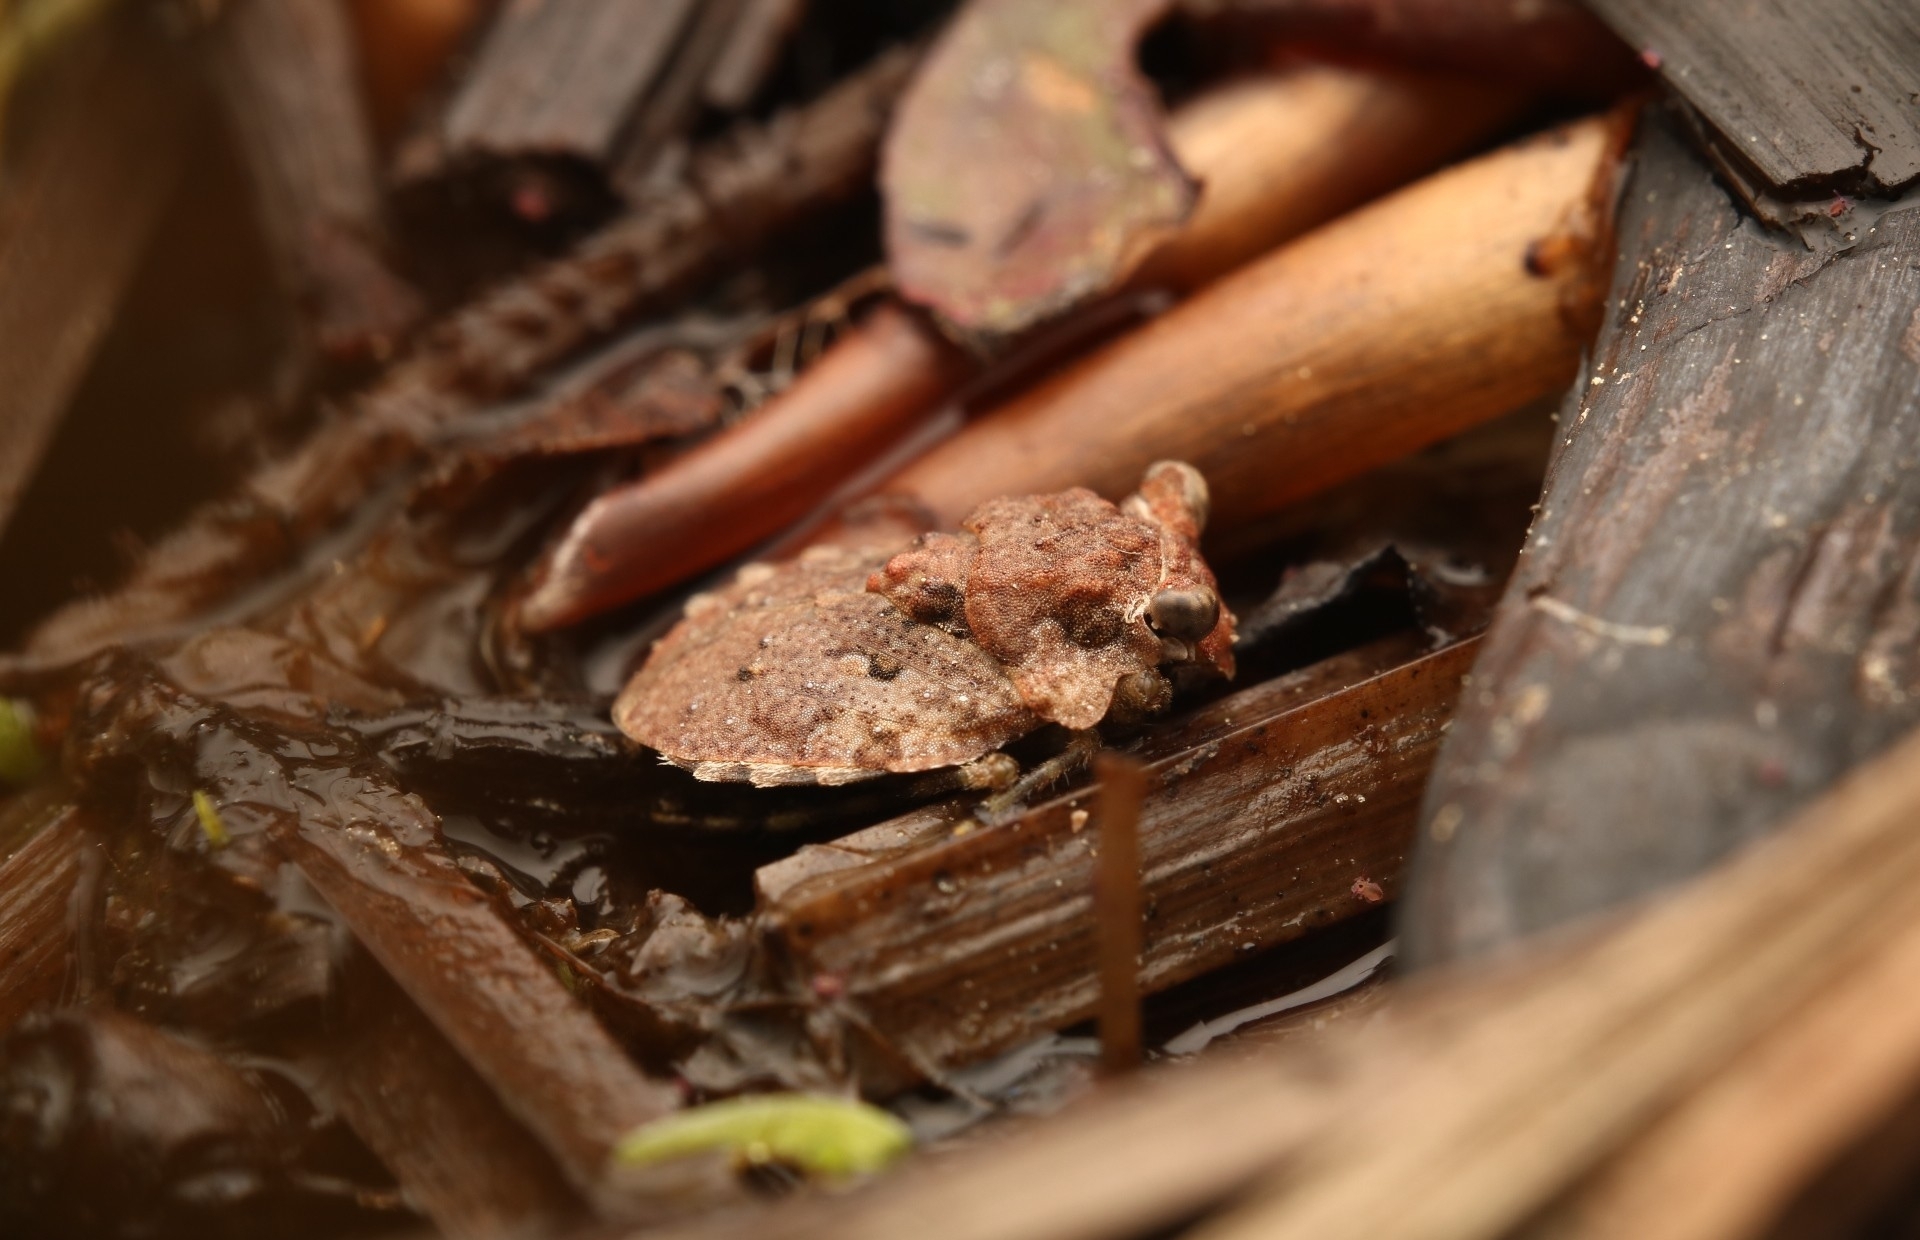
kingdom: Animalia
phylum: Arthropoda
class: Insecta
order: Hemiptera
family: Gelastocoridae
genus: Gelastocoris
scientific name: Gelastocoris oculatus
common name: Toad bug
